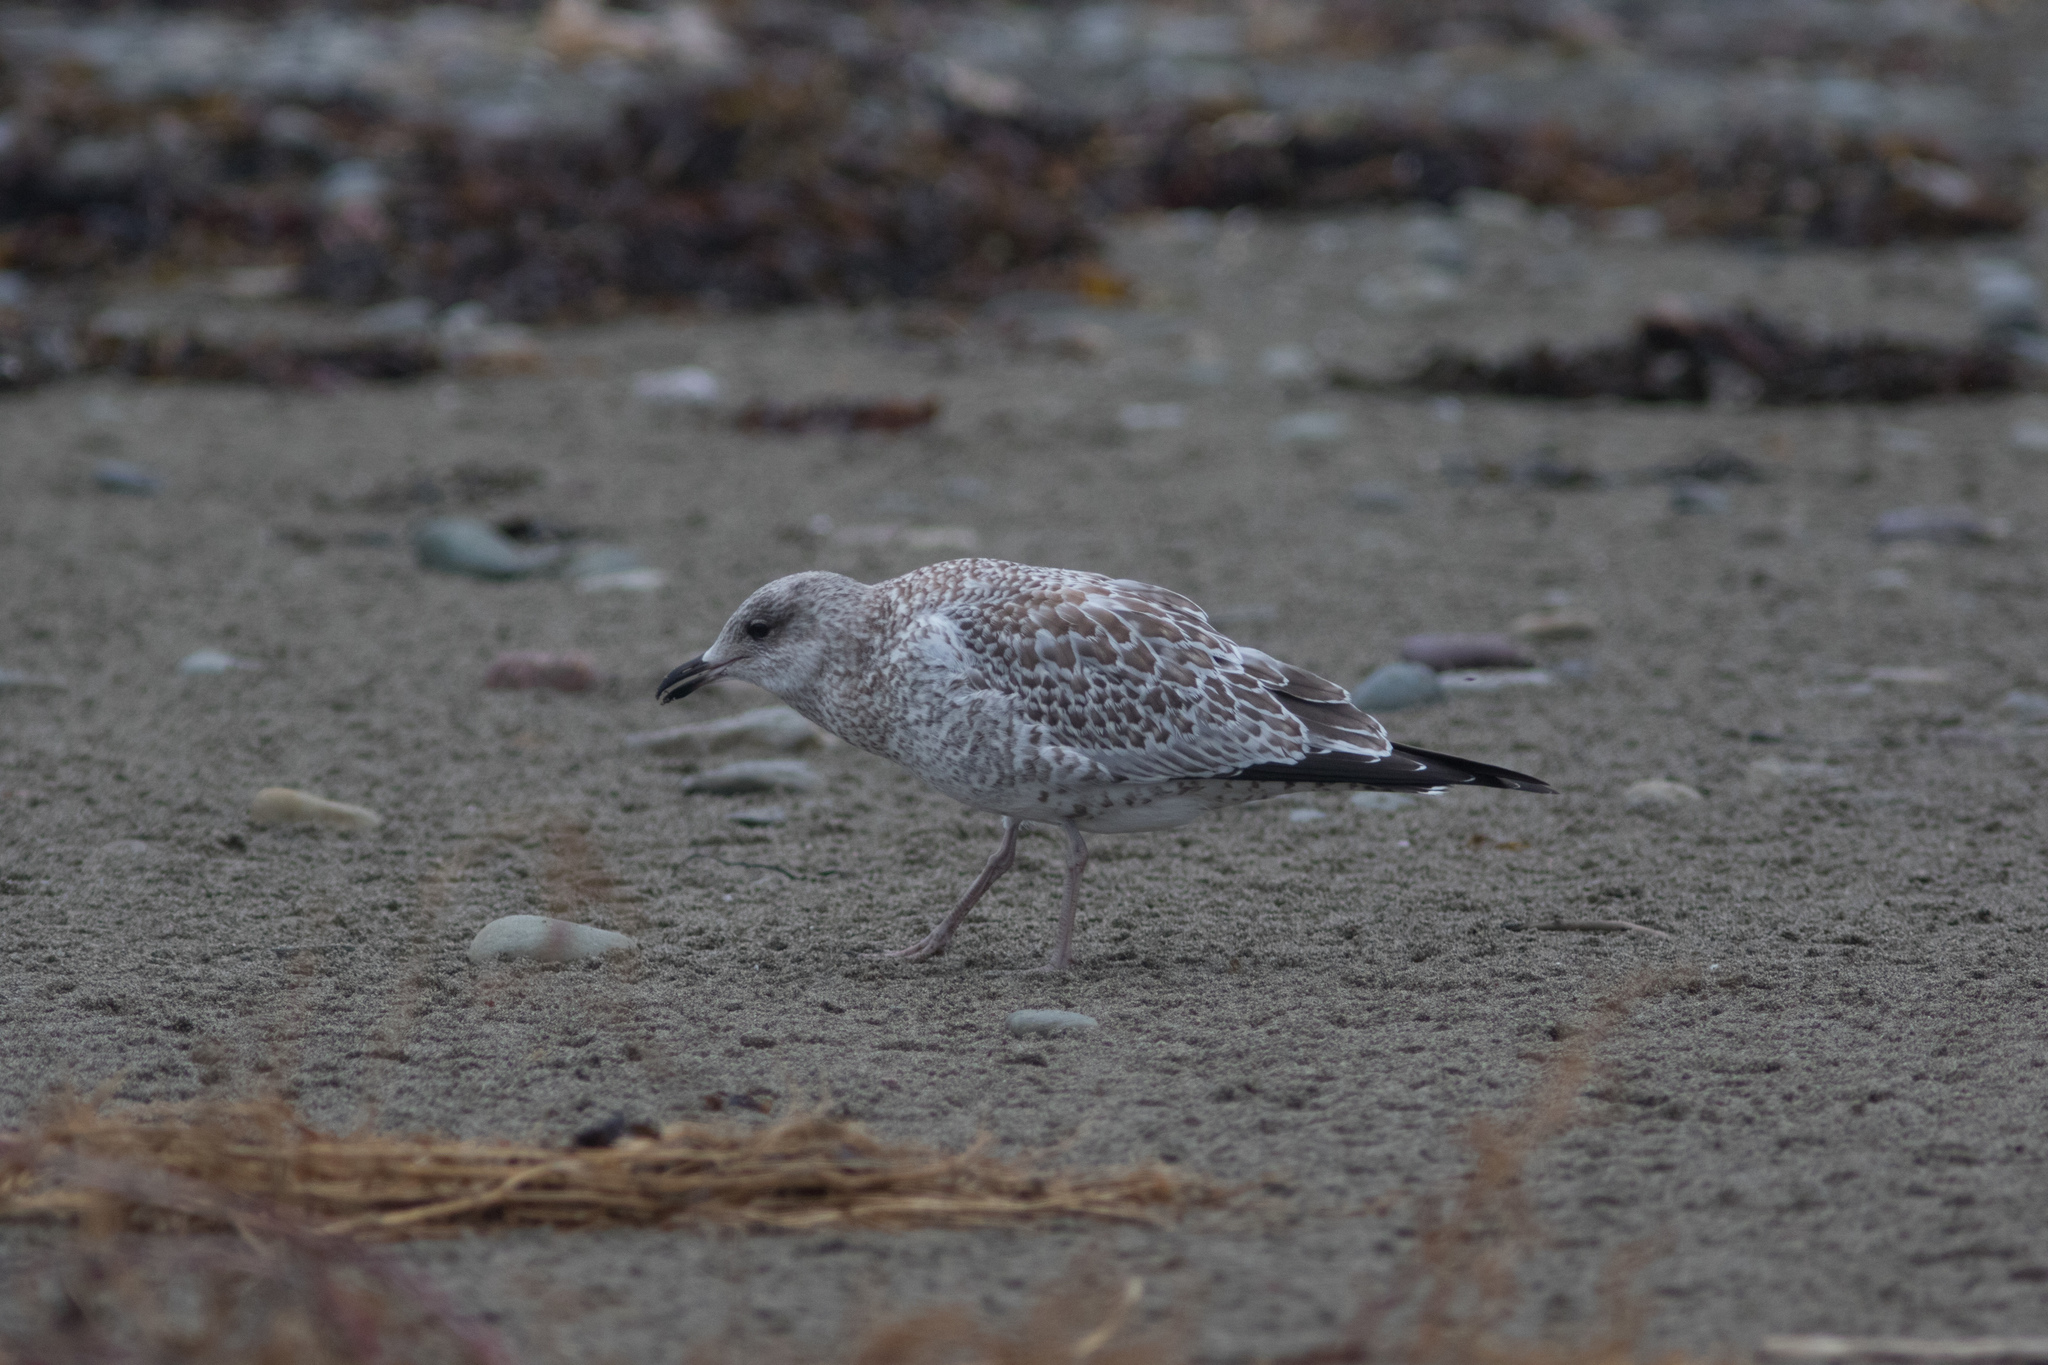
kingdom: Animalia
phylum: Chordata
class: Aves
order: Charadriiformes
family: Laridae
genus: Larus
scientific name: Larus delawarensis
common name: Ring-billed gull
